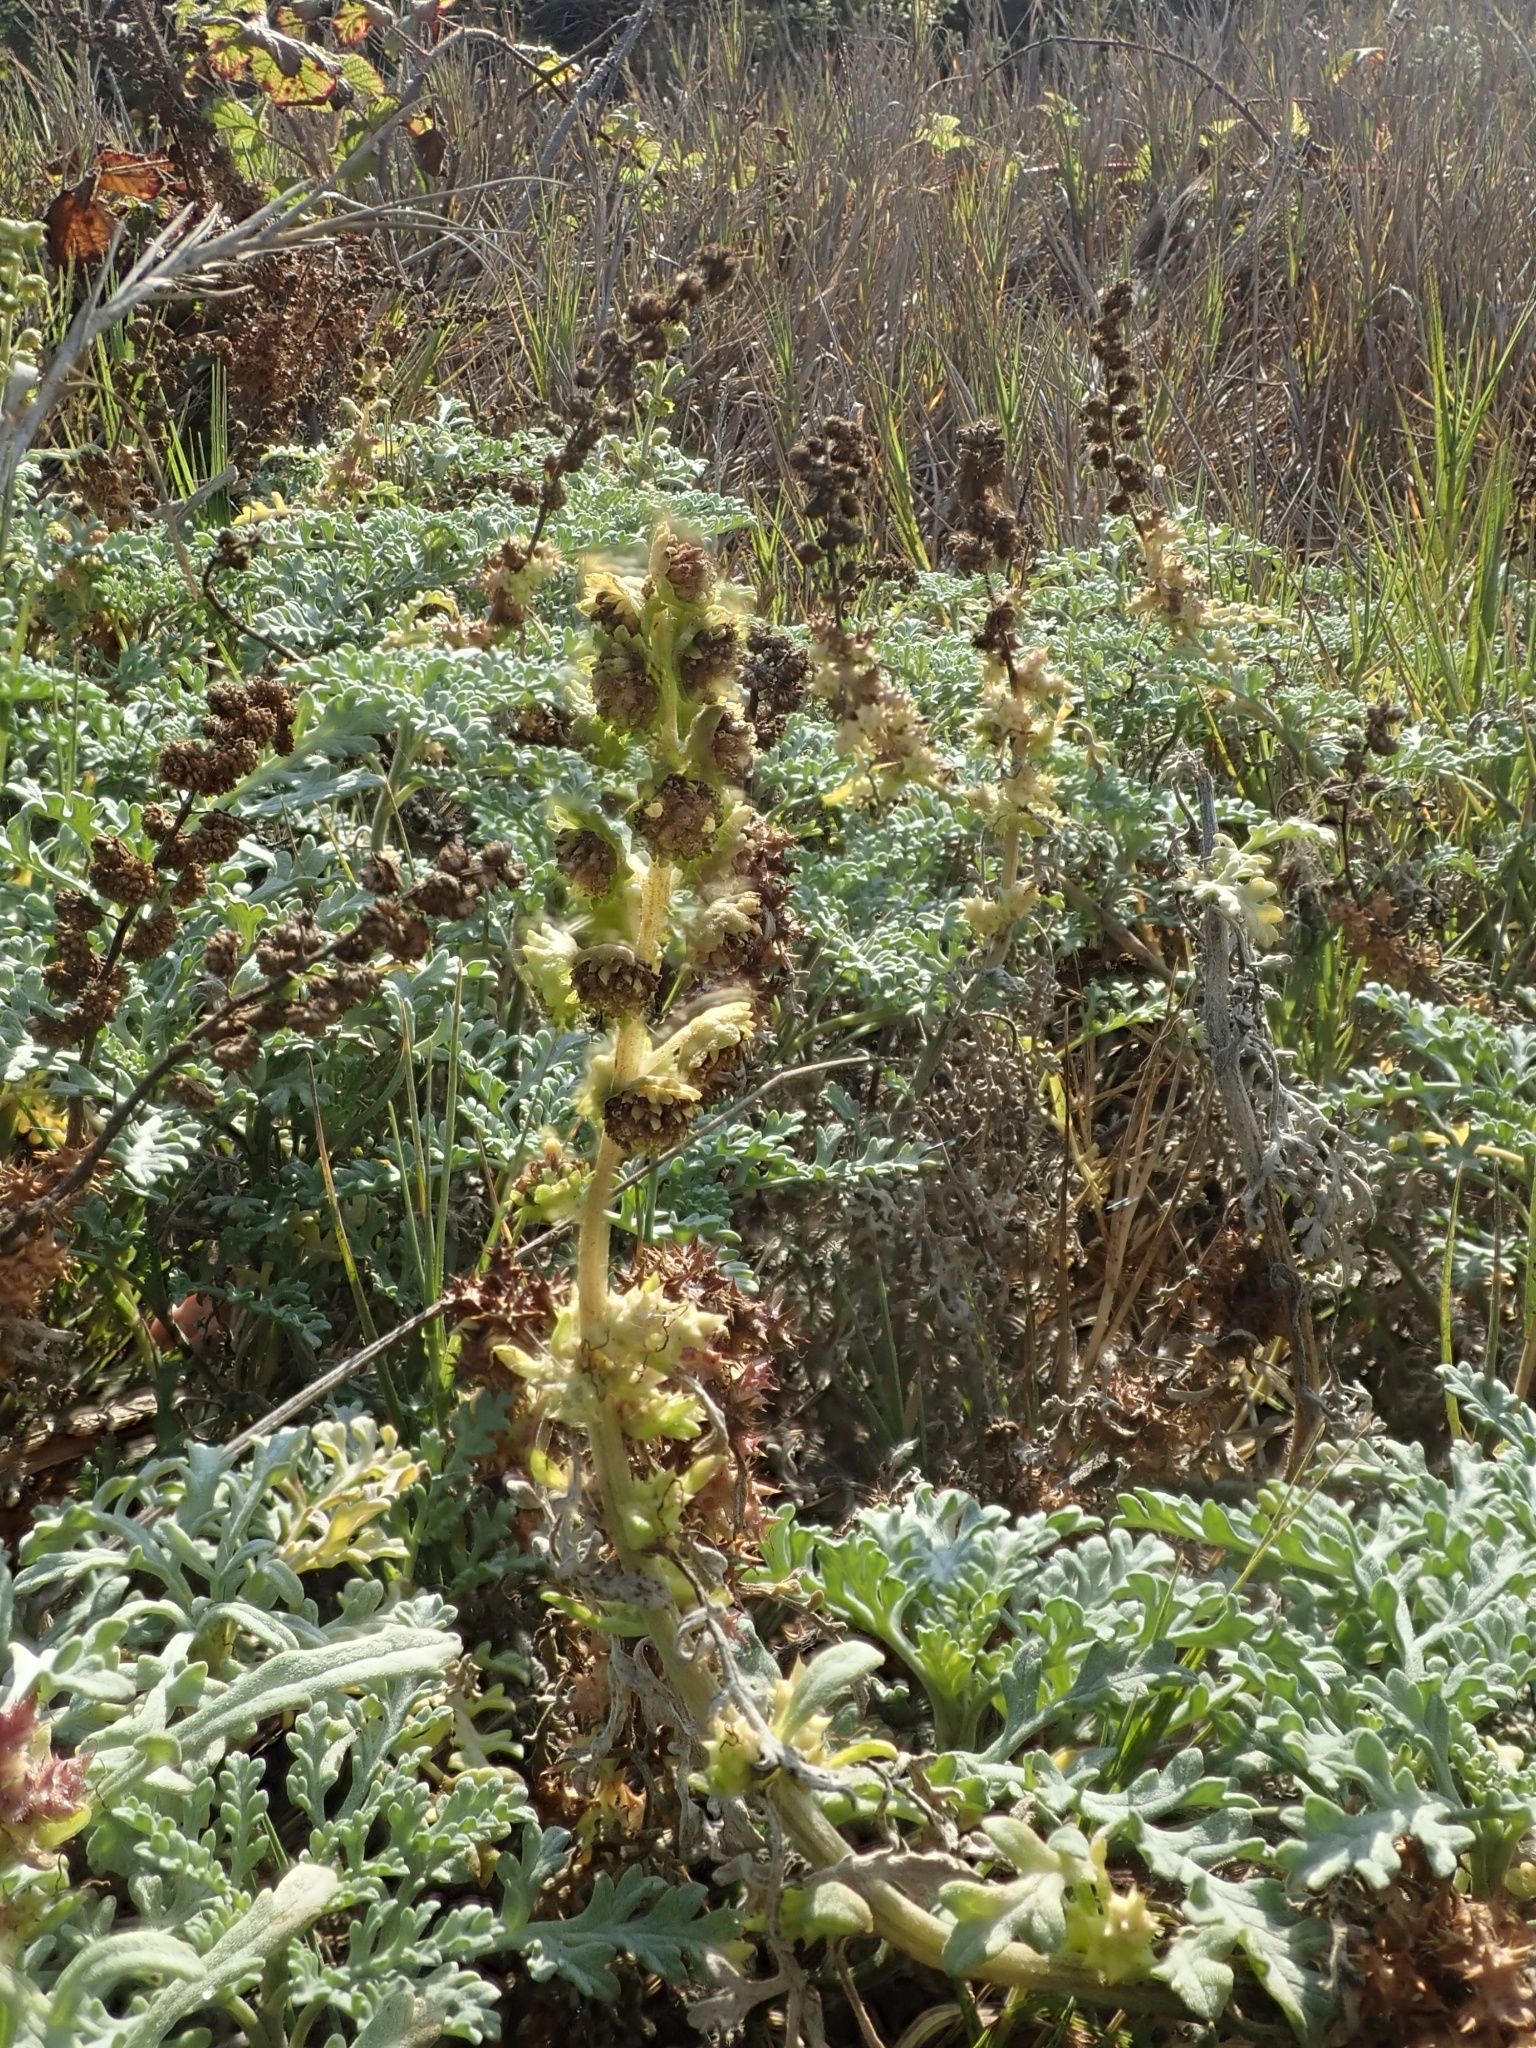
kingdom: Plantae
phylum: Tracheophyta
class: Magnoliopsida
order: Asterales
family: Asteraceae
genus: Ambrosia
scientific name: Ambrosia chamissonis
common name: Beachbur
